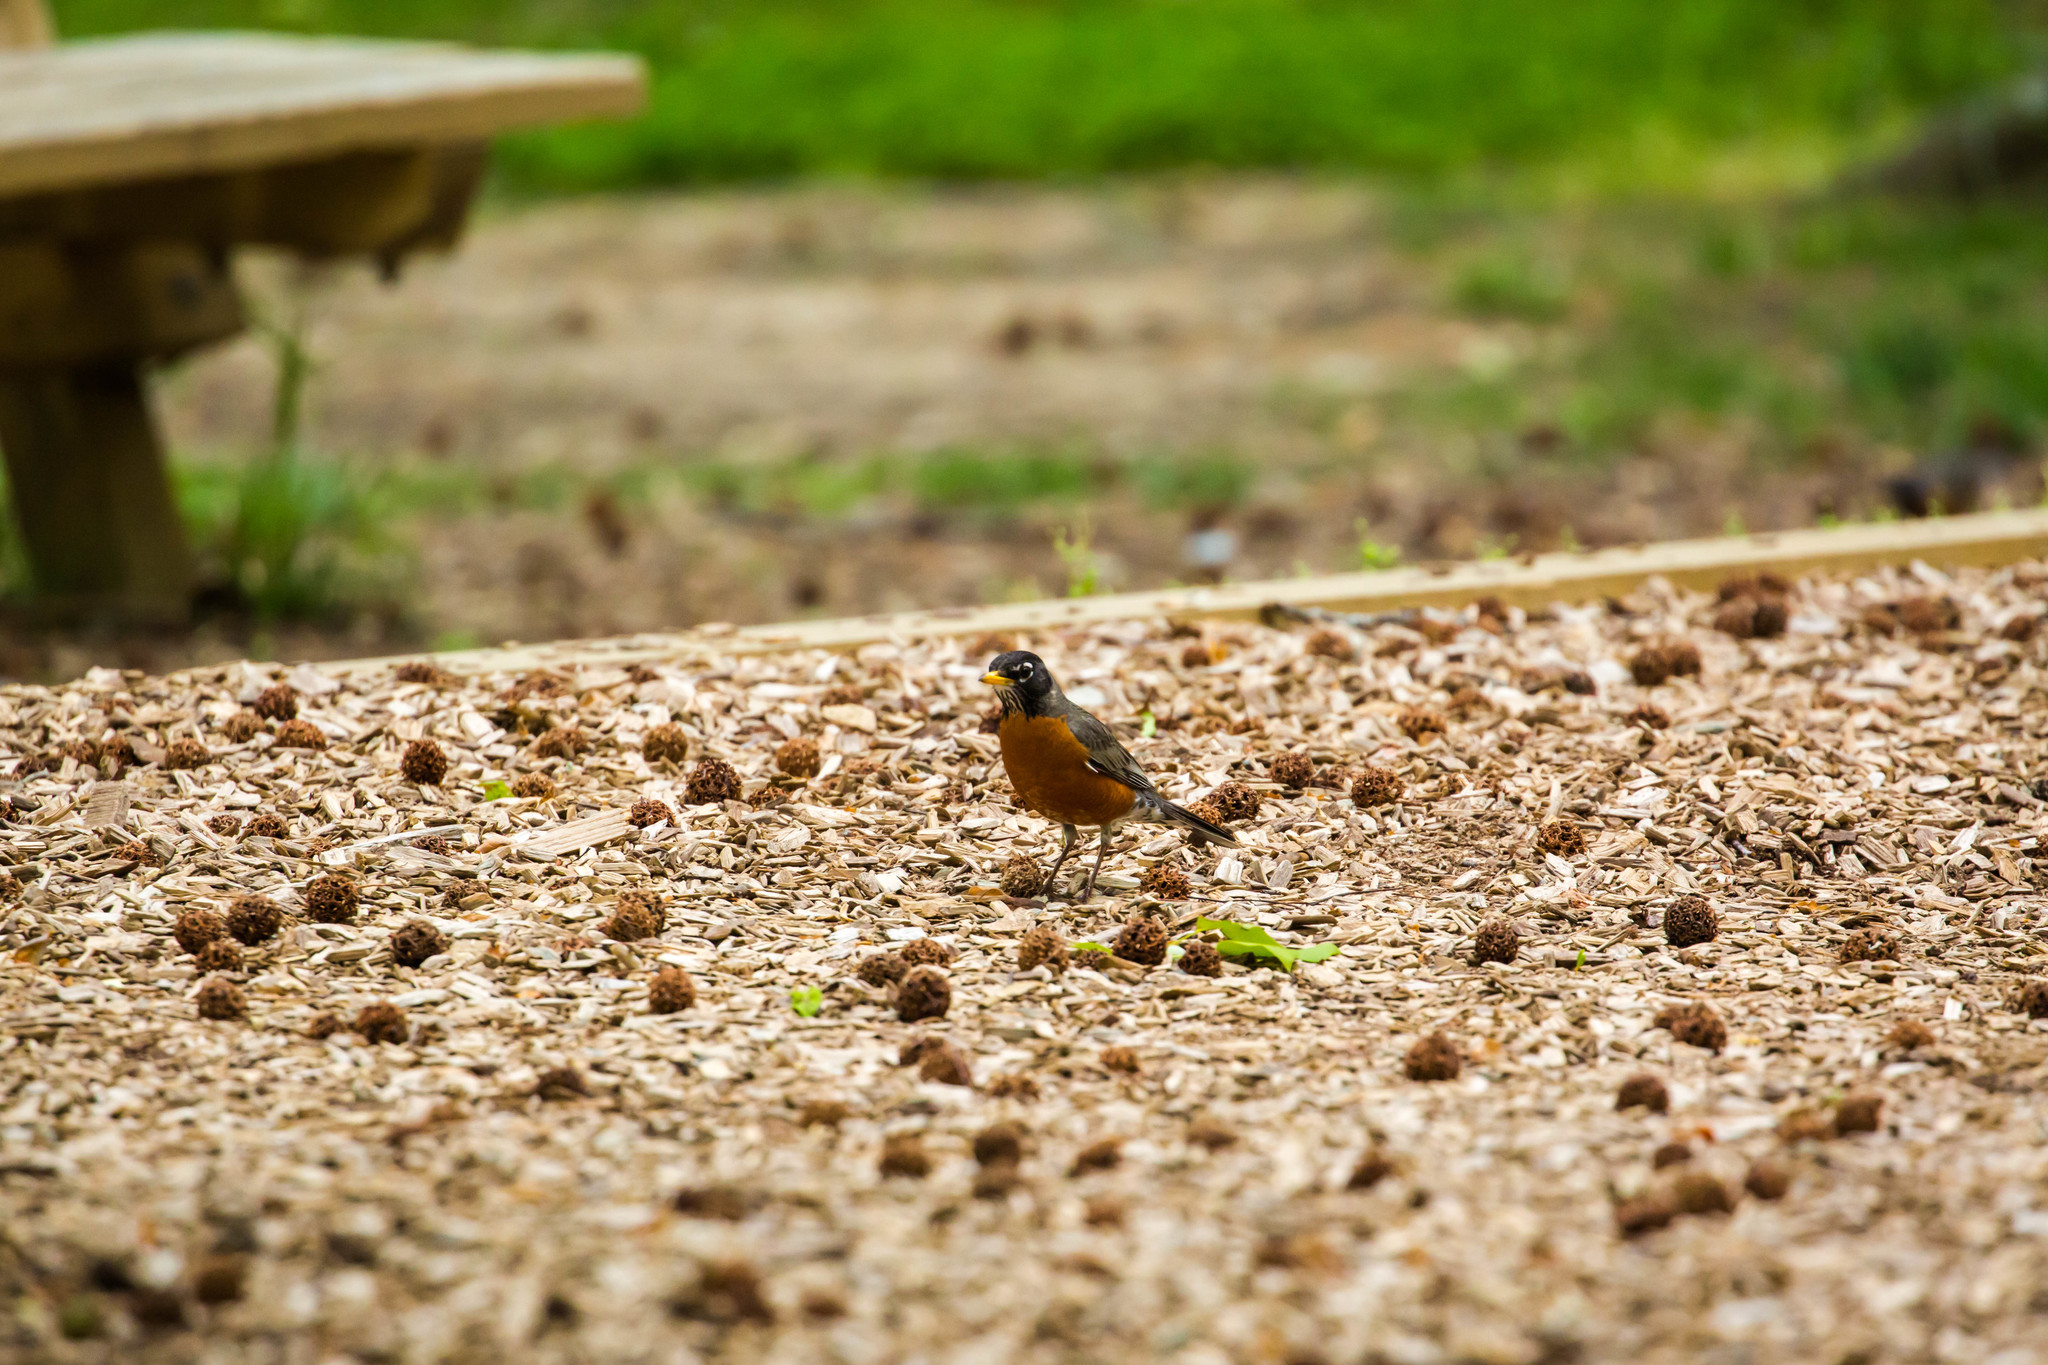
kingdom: Animalia
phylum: Chordata
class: Aves
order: Passeriformes
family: Turdidae
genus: Turdus
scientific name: Turdus migratorius
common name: American robin
